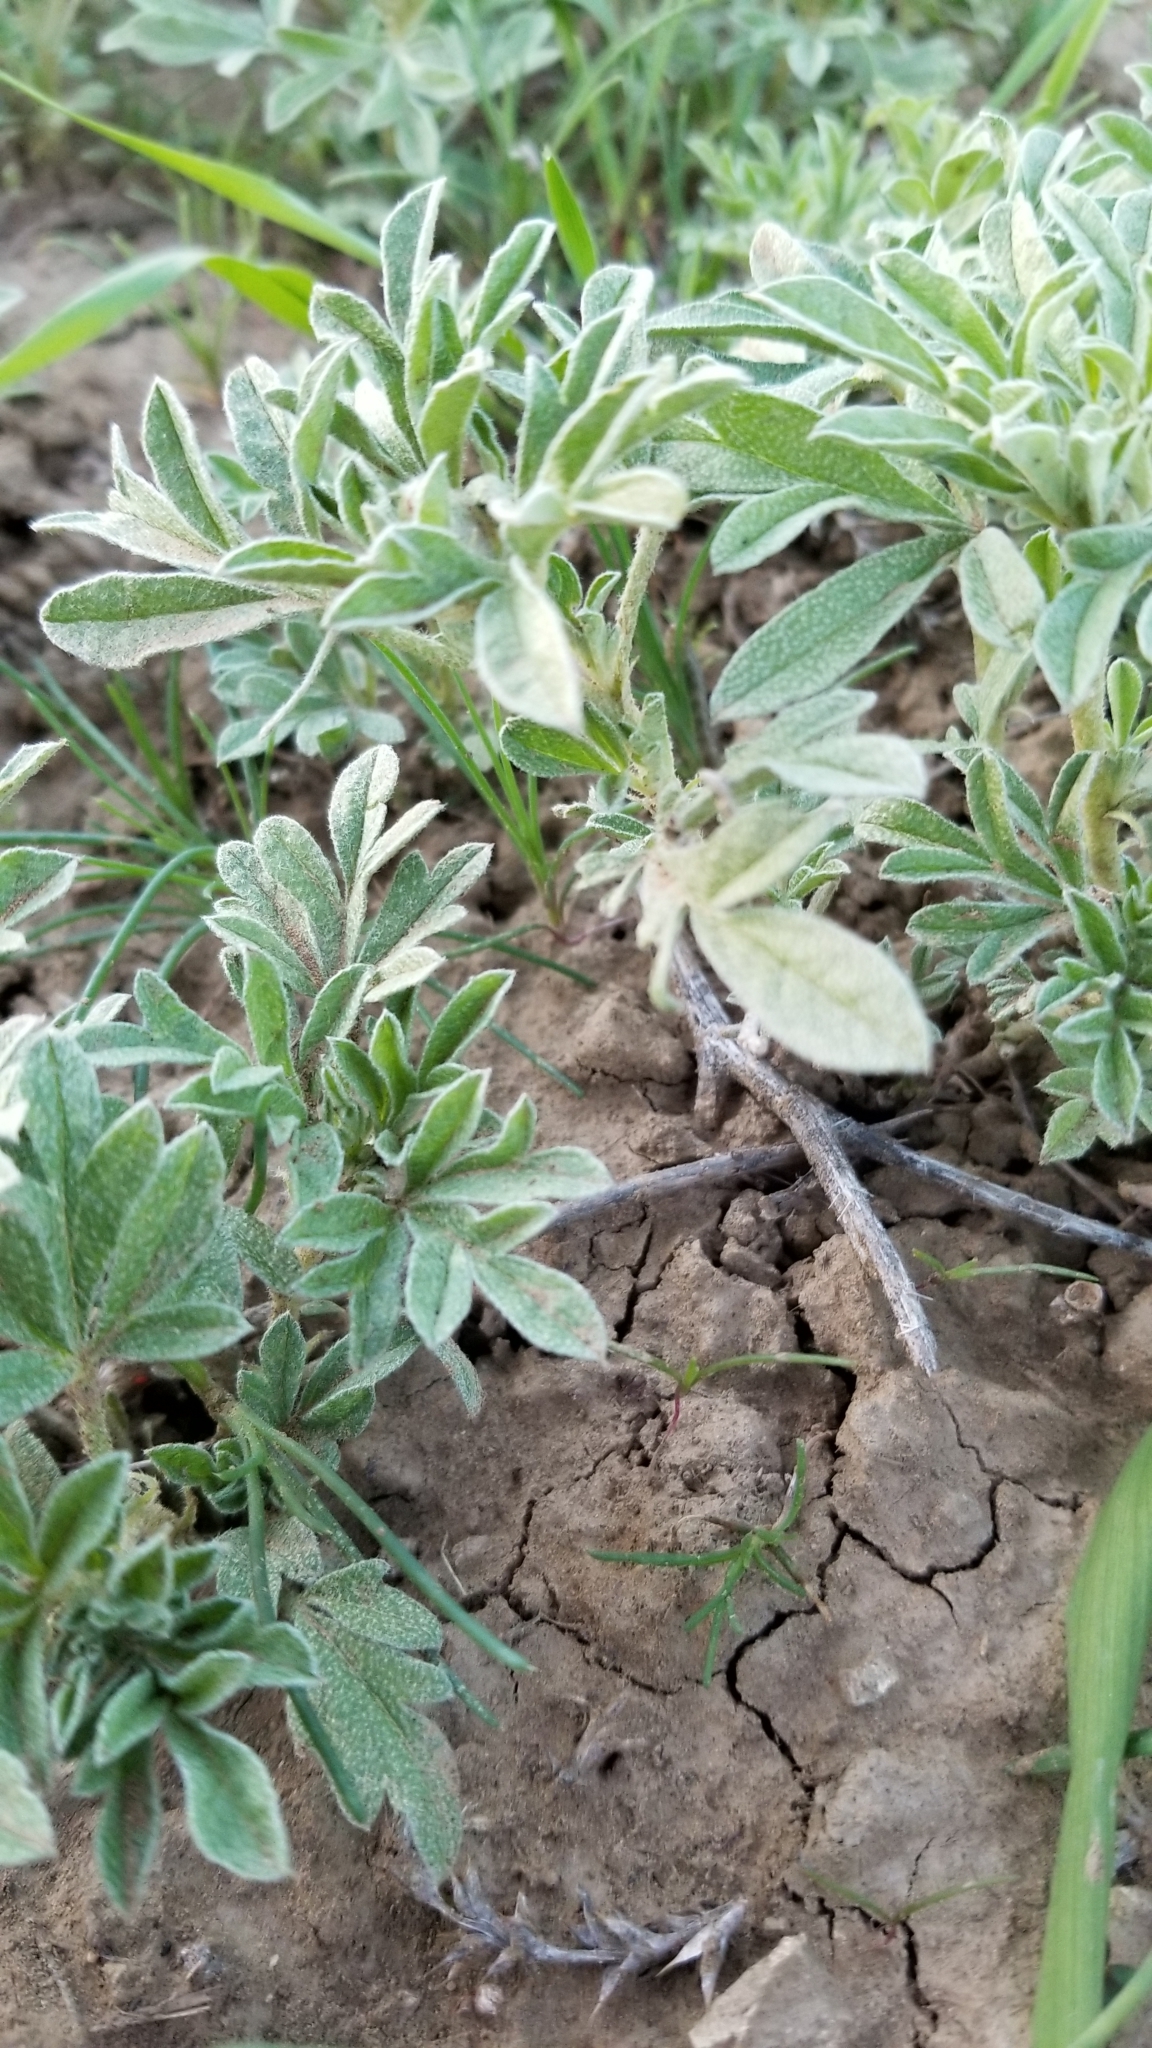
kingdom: Plantae
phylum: Tracheophyta
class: Magnoliopsida
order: Malvales
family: Malvaceae
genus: Sphaeralcea
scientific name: Sphaeralcea coccinea
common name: Moss-rose
